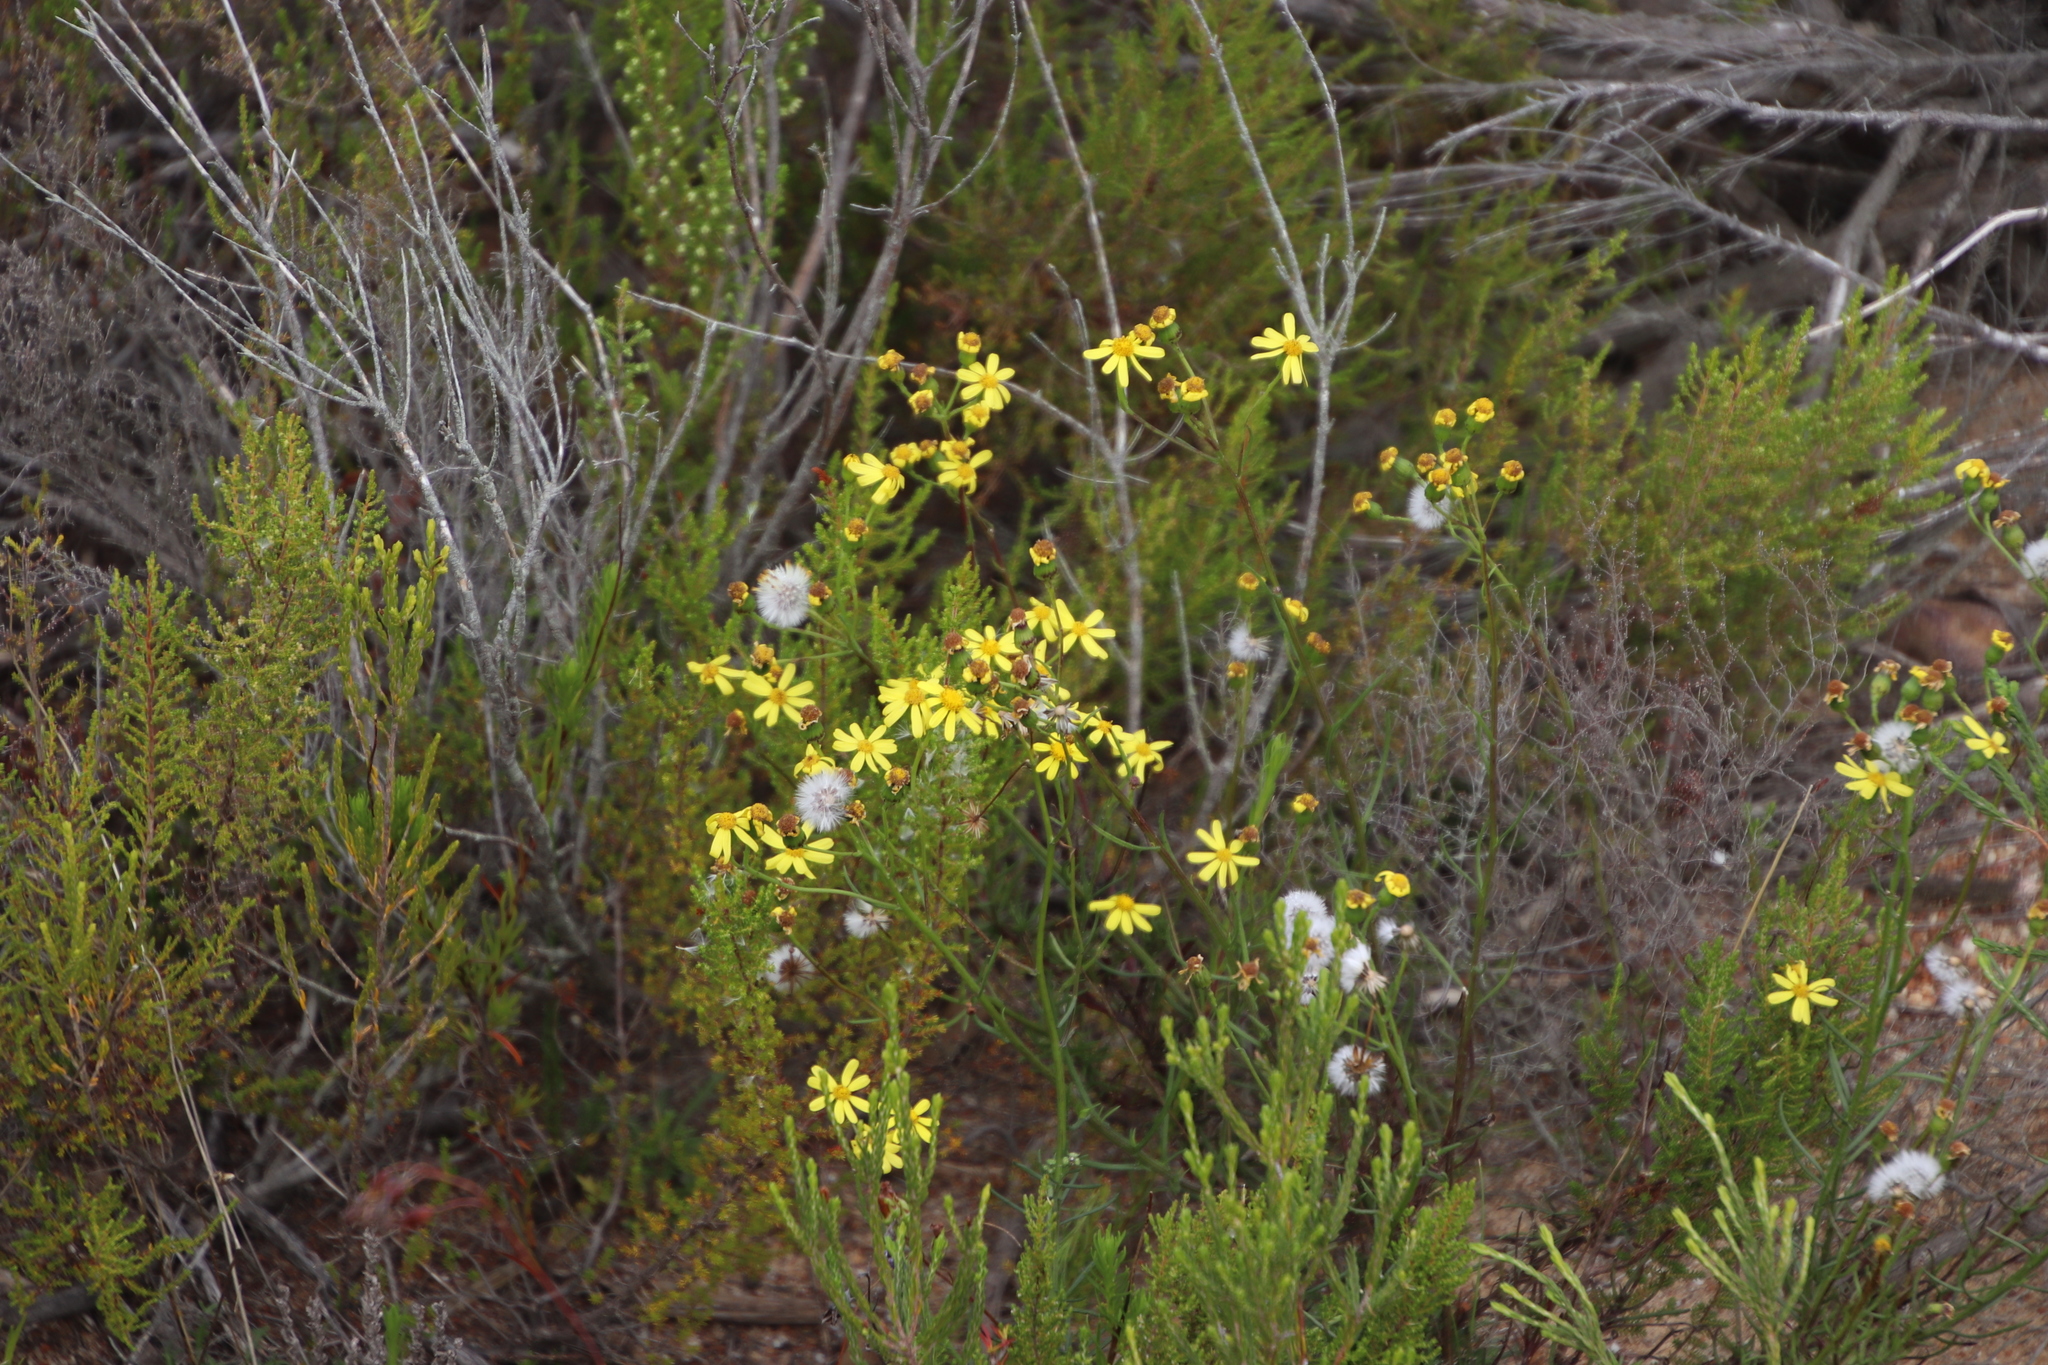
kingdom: Plantae
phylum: Tracheophyta
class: Magnoliopsida
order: Asterales
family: Asteraceae
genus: Senecio
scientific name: Senecio burchellii
